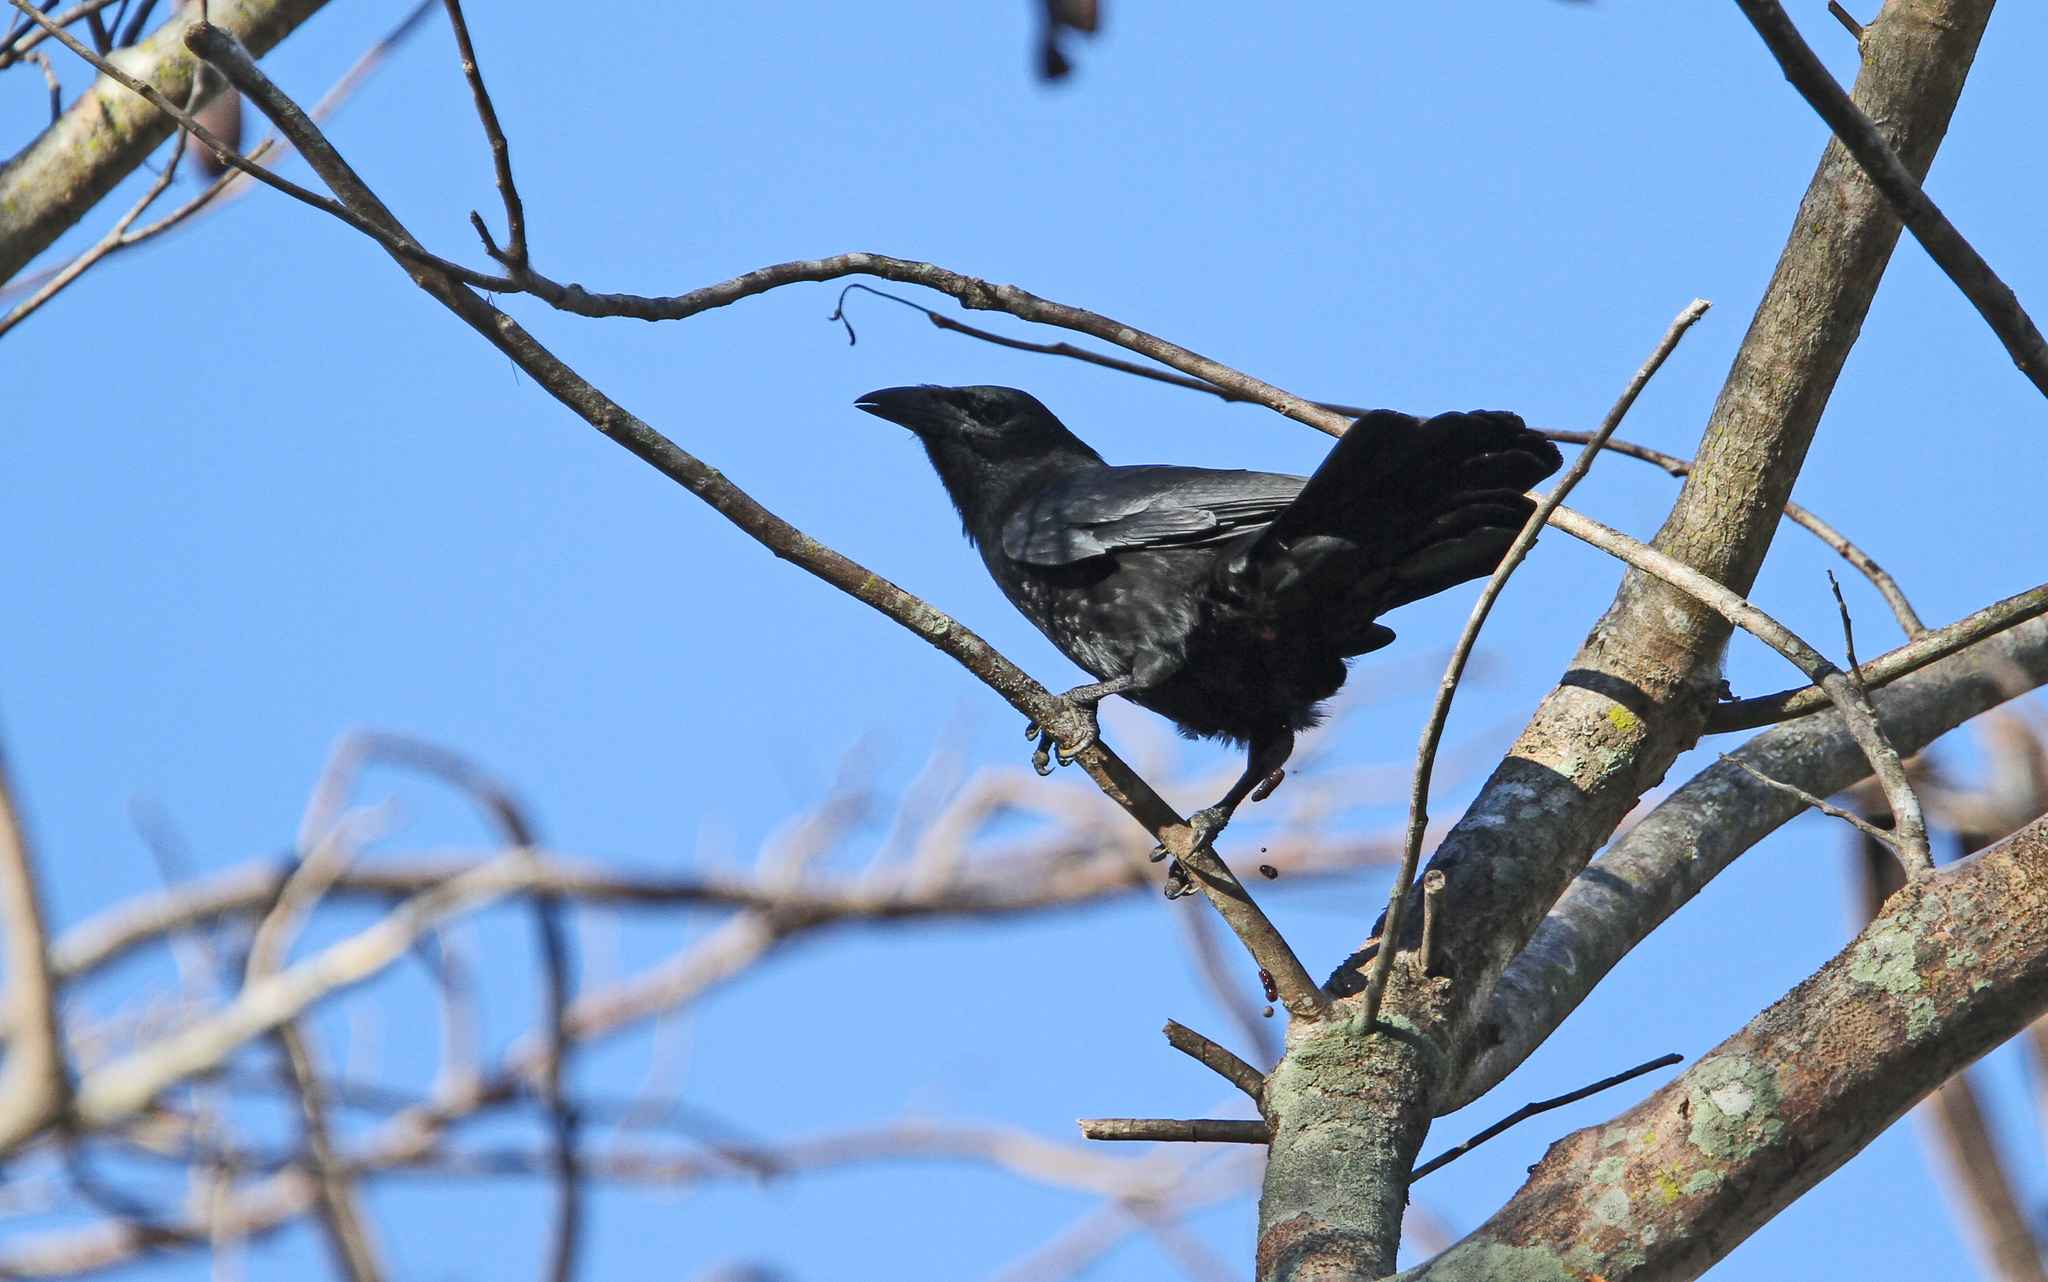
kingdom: Animalia
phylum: Chordata
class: Aves
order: Passeriformes
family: Corvidae
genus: Corvus
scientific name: Corvus nasicus
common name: Cuban crow
